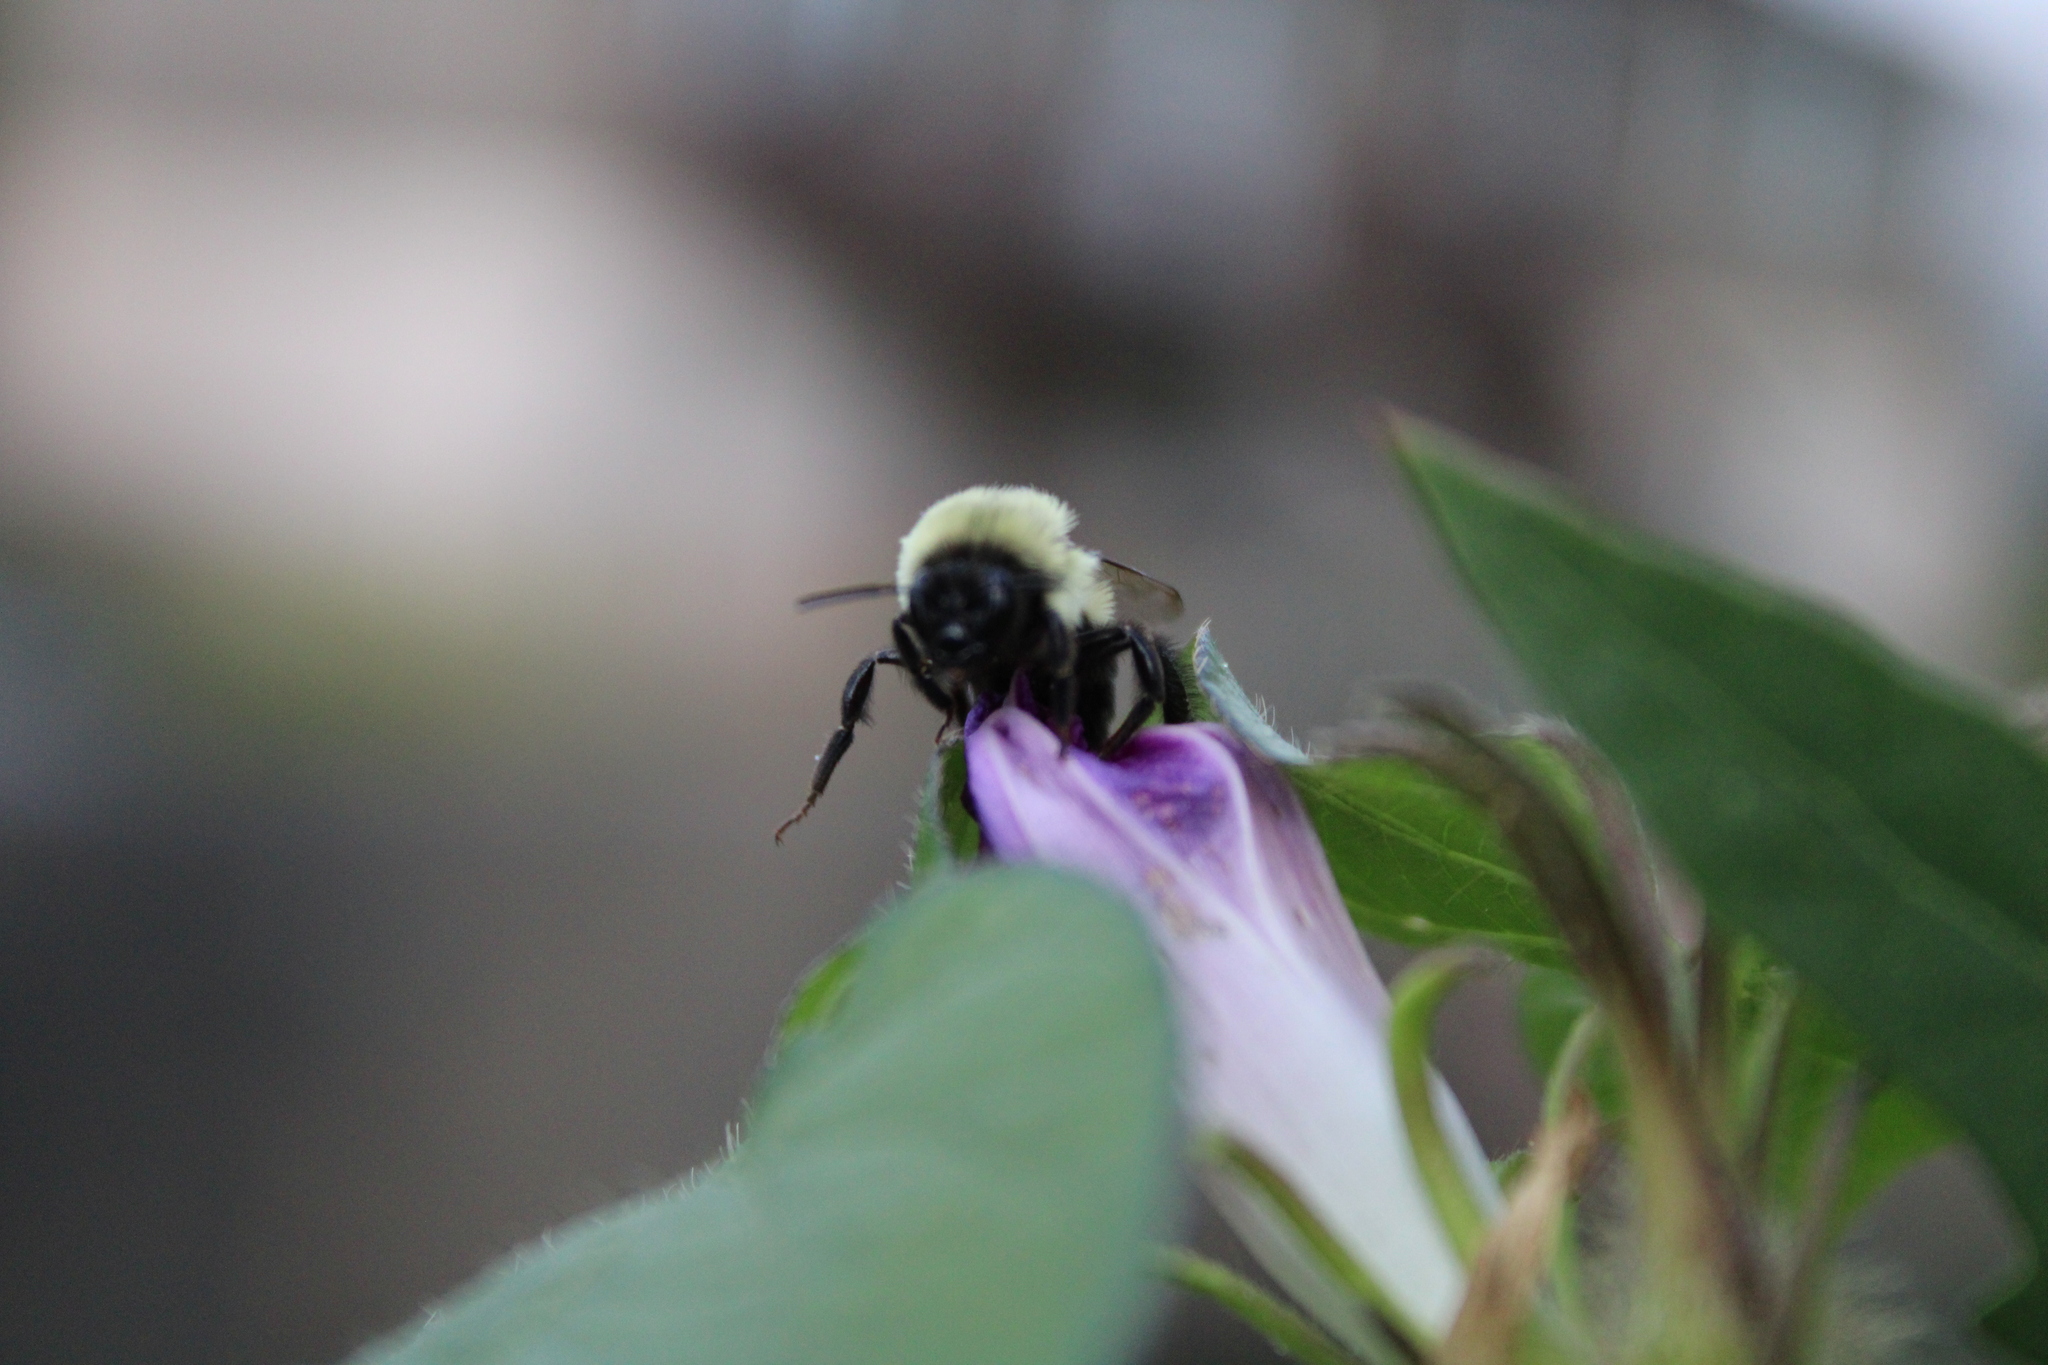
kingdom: Animalia
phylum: Arthropoda
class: Insecta
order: Hymenoptera
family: Apidae
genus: Bombus
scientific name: Bombus impatiens
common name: Common eastern bumble bee
